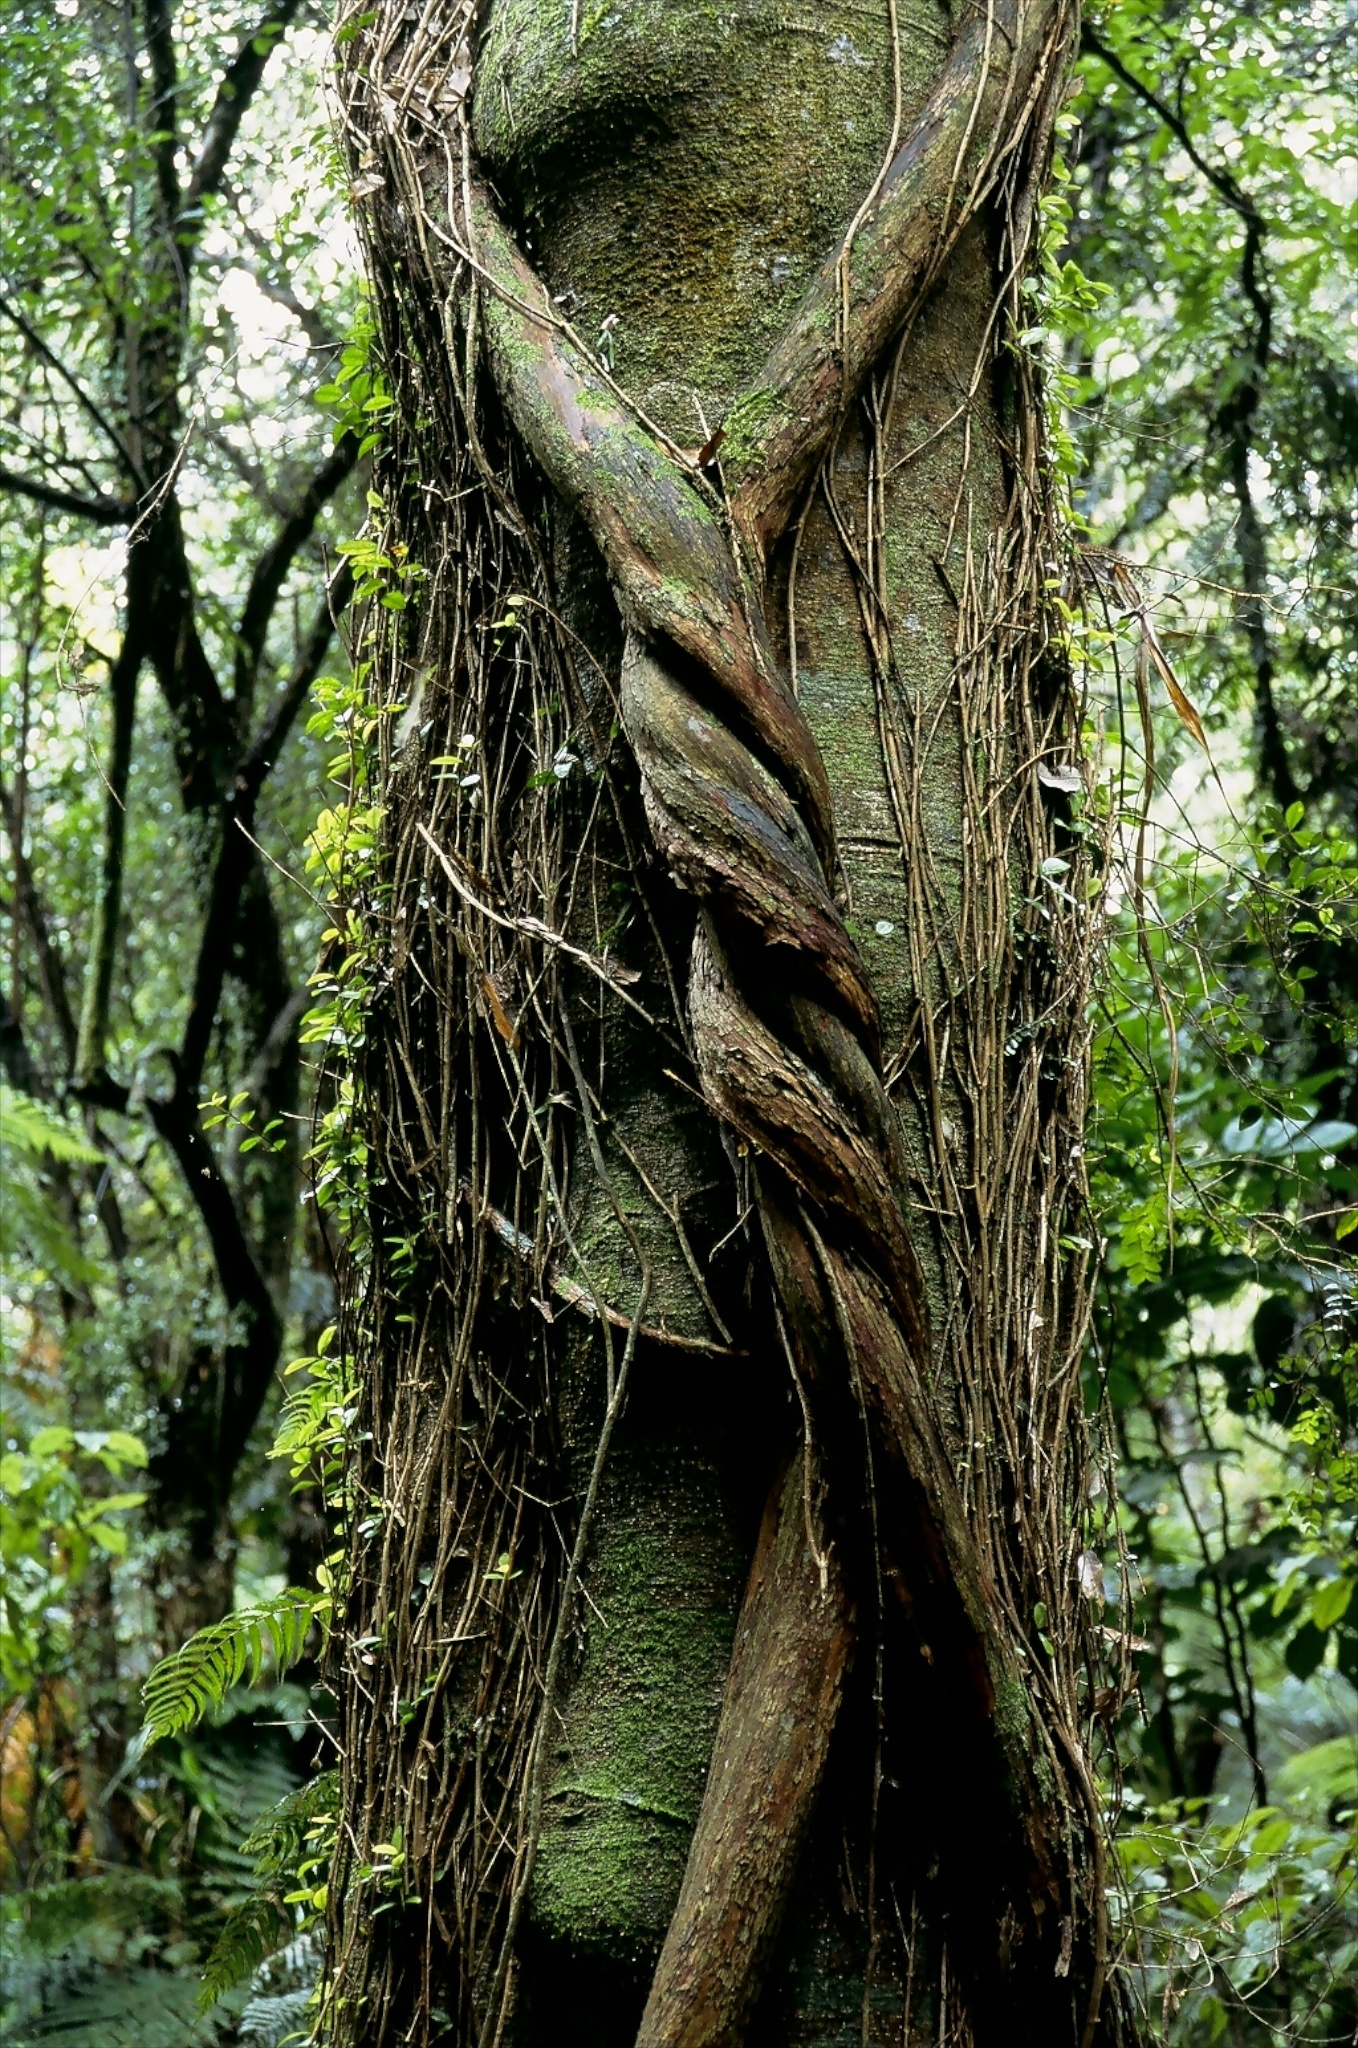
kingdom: Plantae
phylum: Tracheophyta
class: Magnoliopsida
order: Myrtales
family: Myrtaceae
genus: Metrosideros
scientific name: Metrosideros robusta
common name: Northern rata
